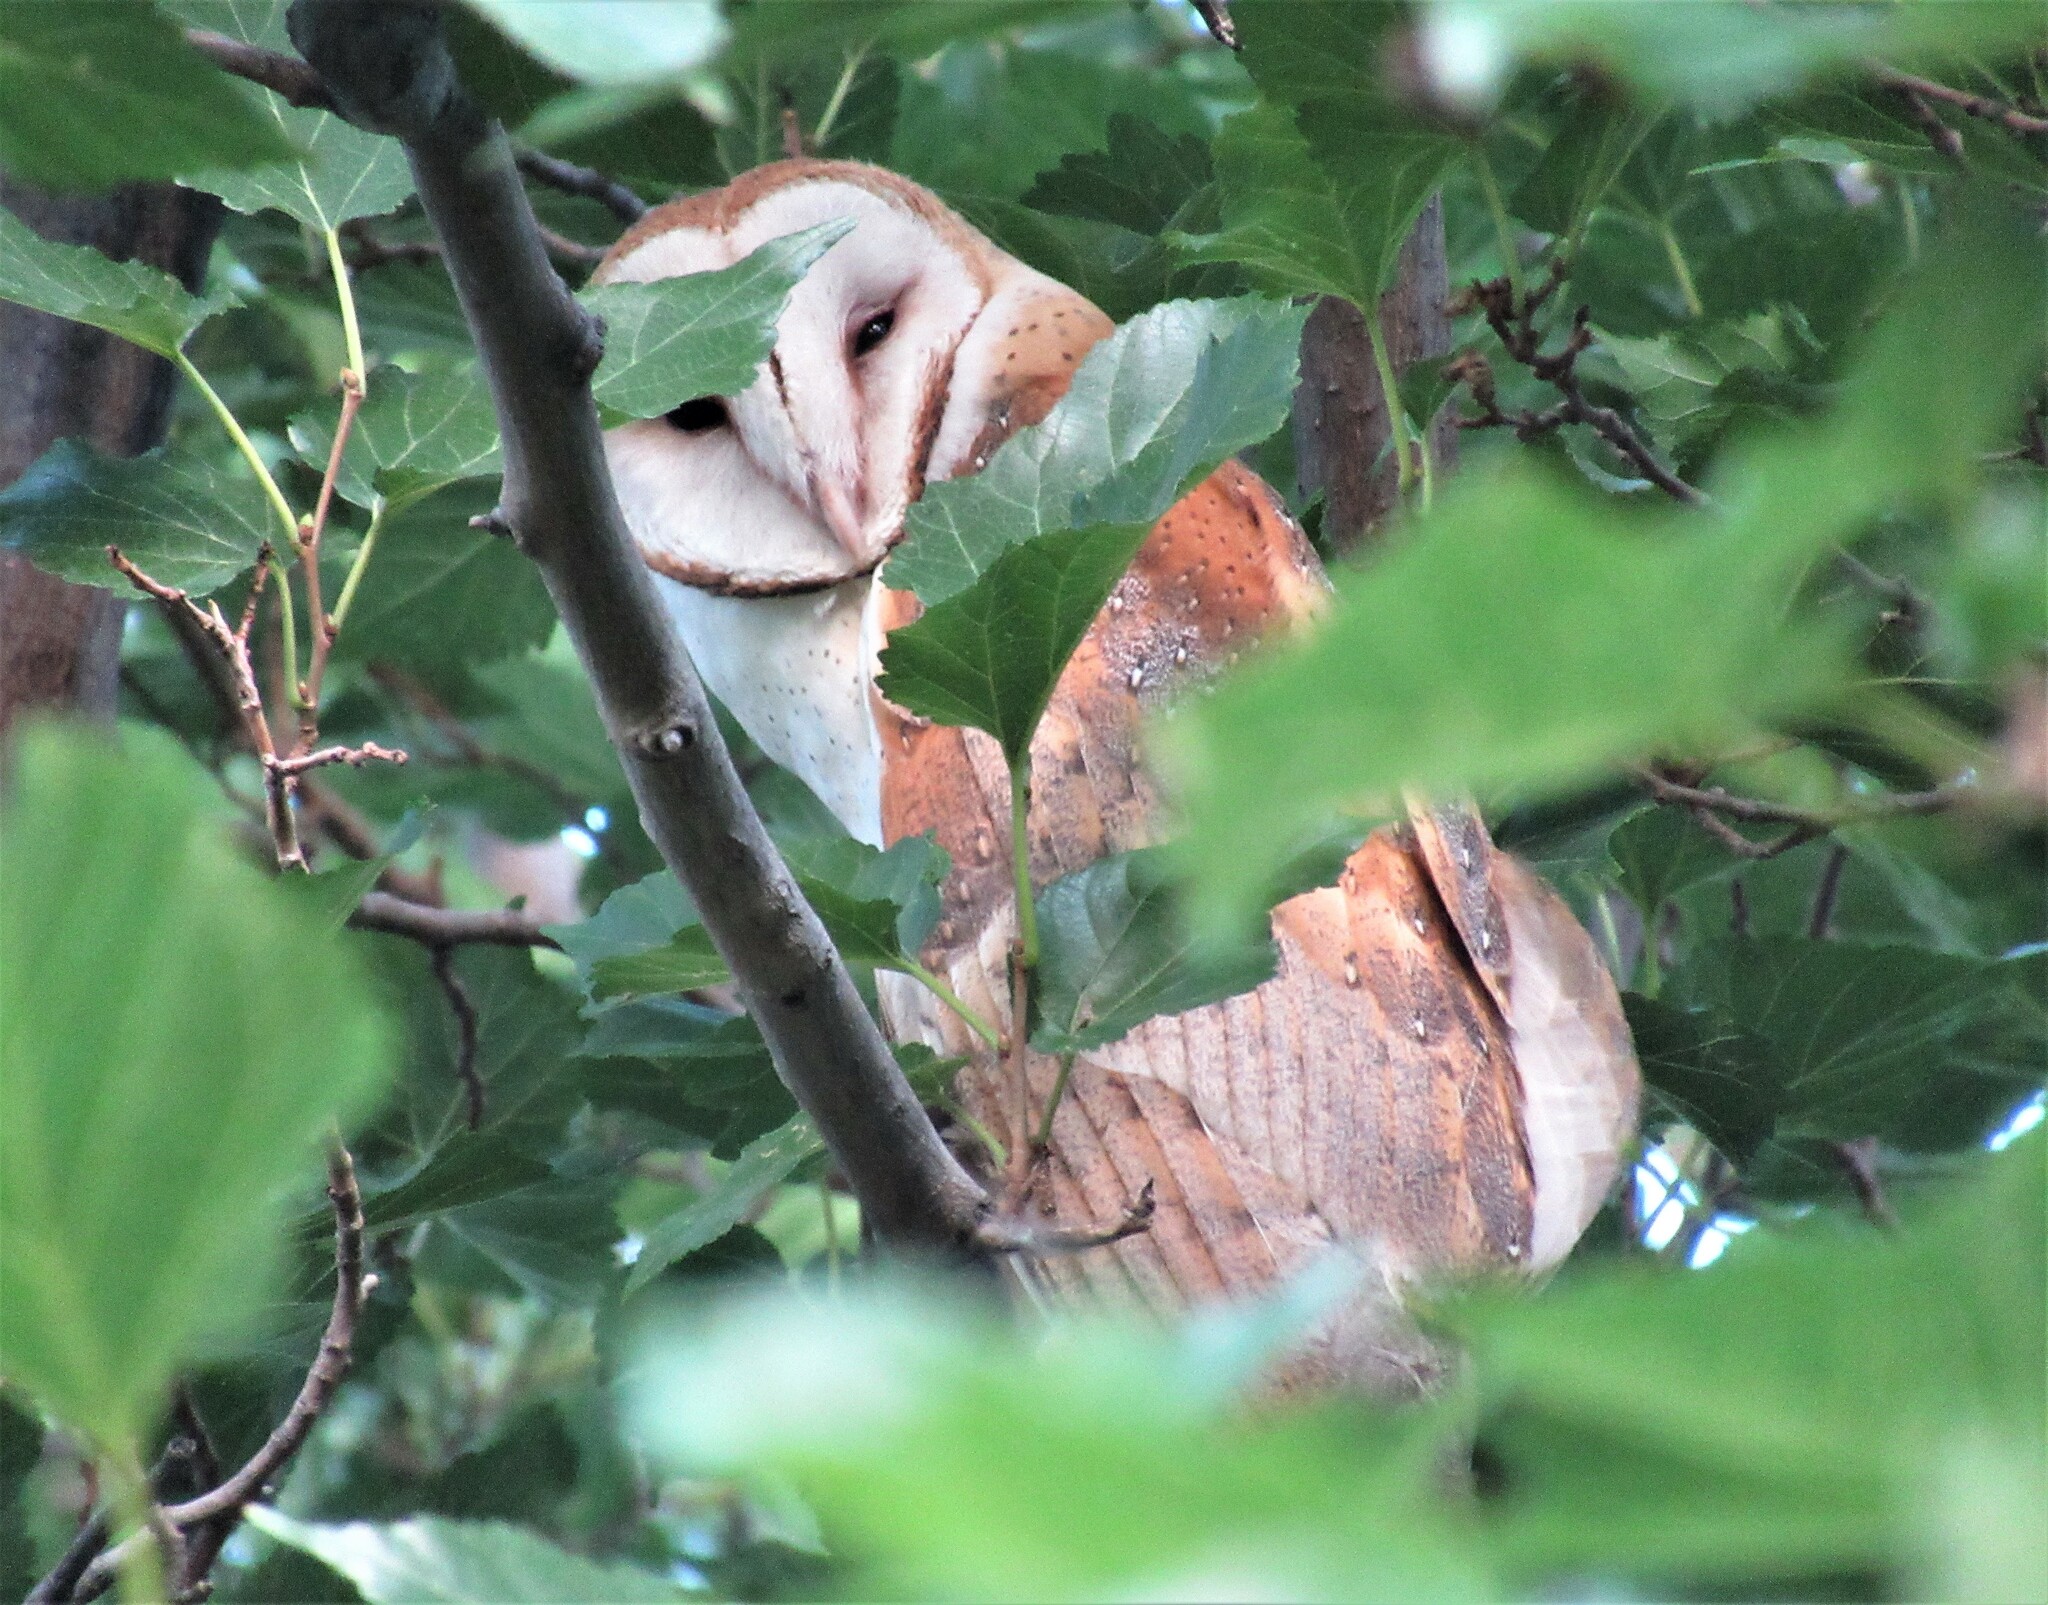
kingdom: Animalia
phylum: Chordata
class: Aves
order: Strigiformes
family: Tytonidae
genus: Tyto
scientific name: Tyto alba
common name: Barn owl
